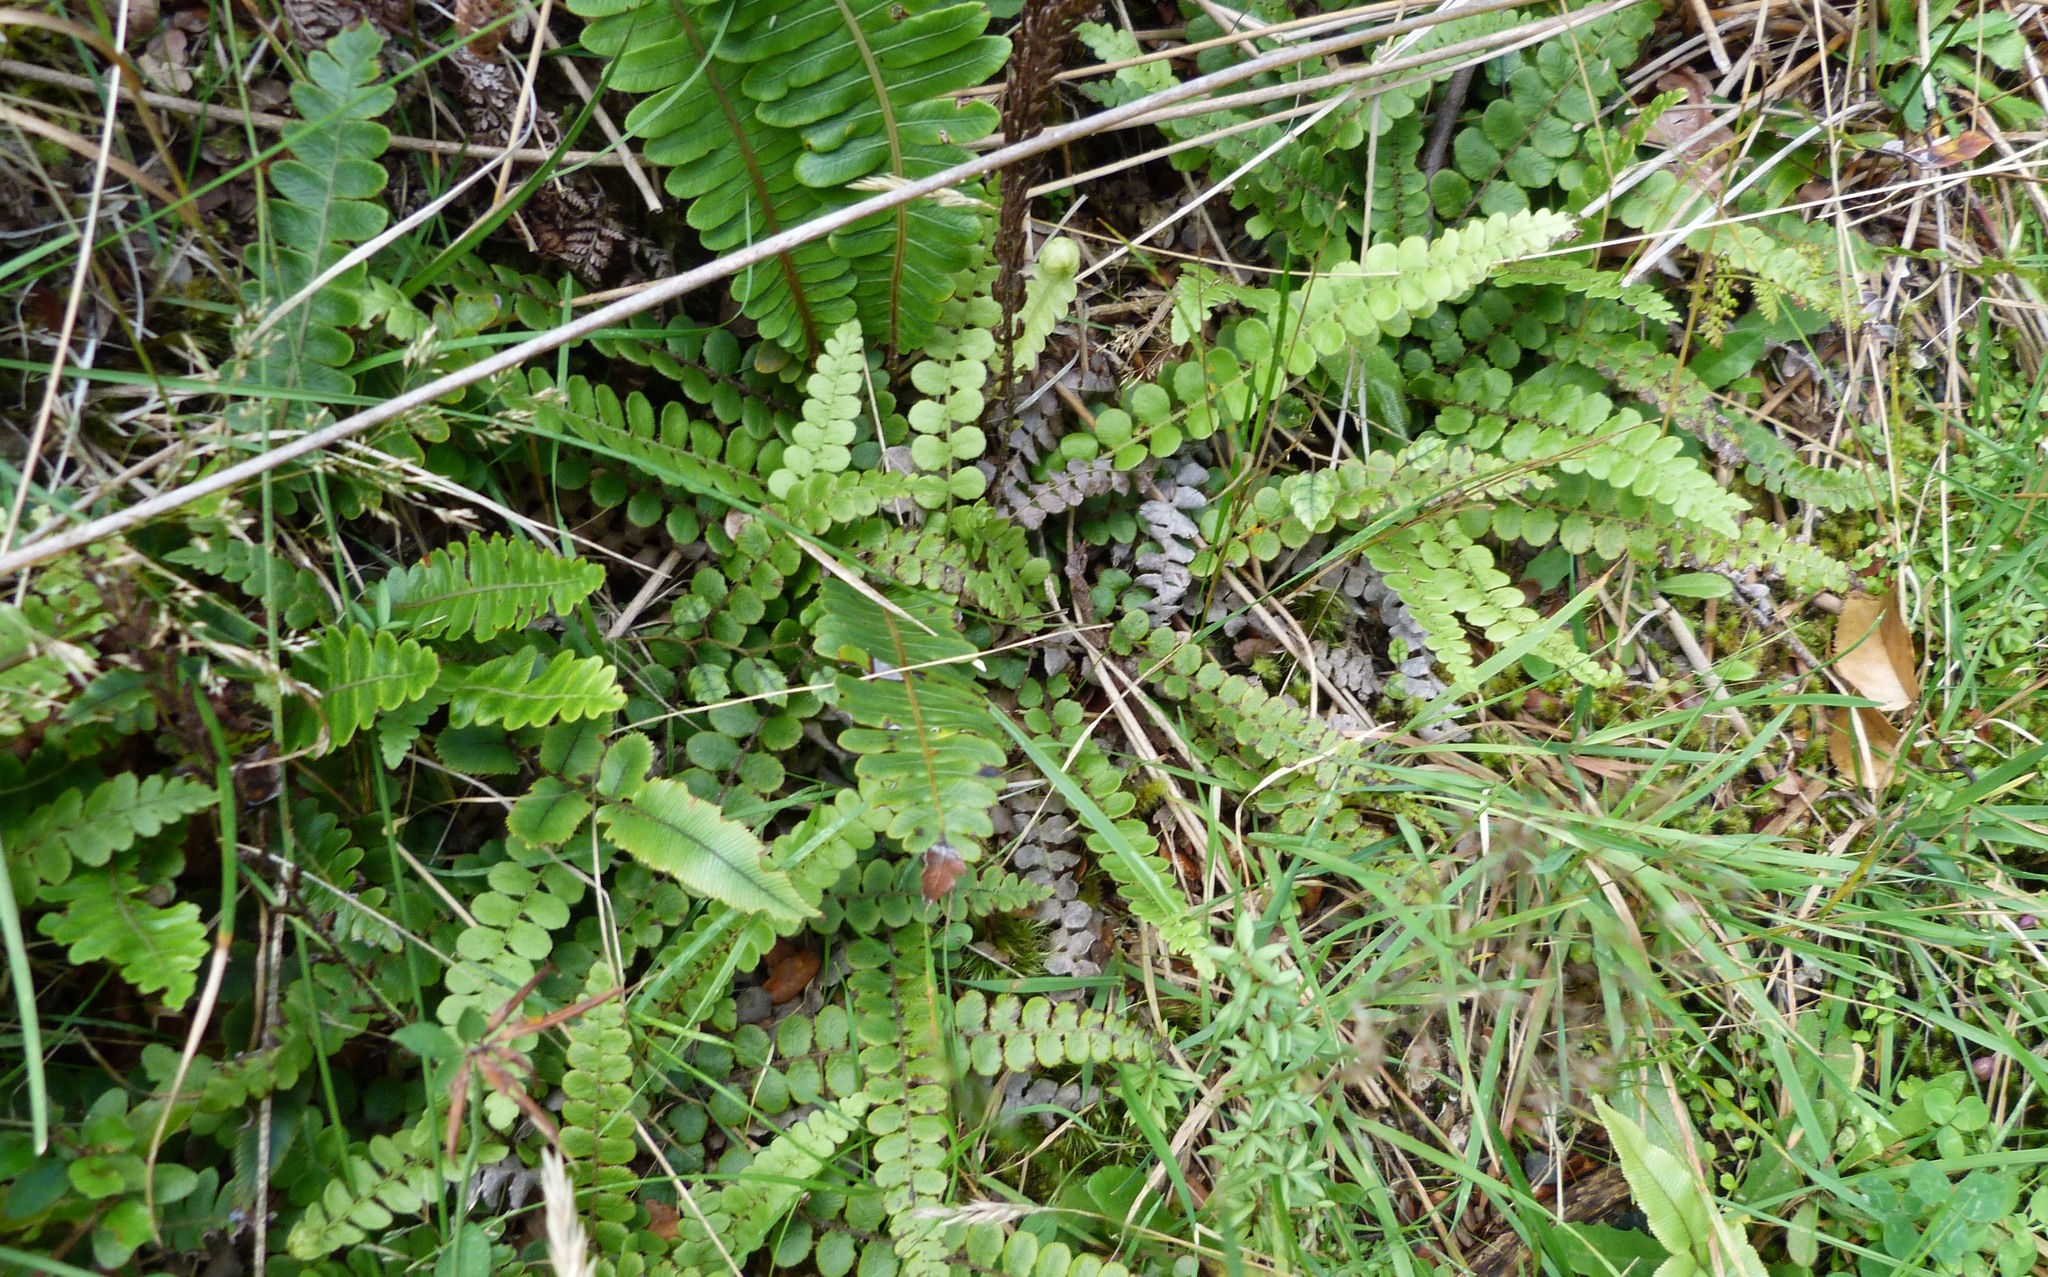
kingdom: Plantae
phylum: Tracheophyta
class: Polypodiopsida
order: Polypodiales
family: Blechnaceae
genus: Cranfillia
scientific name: Cranfillia fluviatilis
